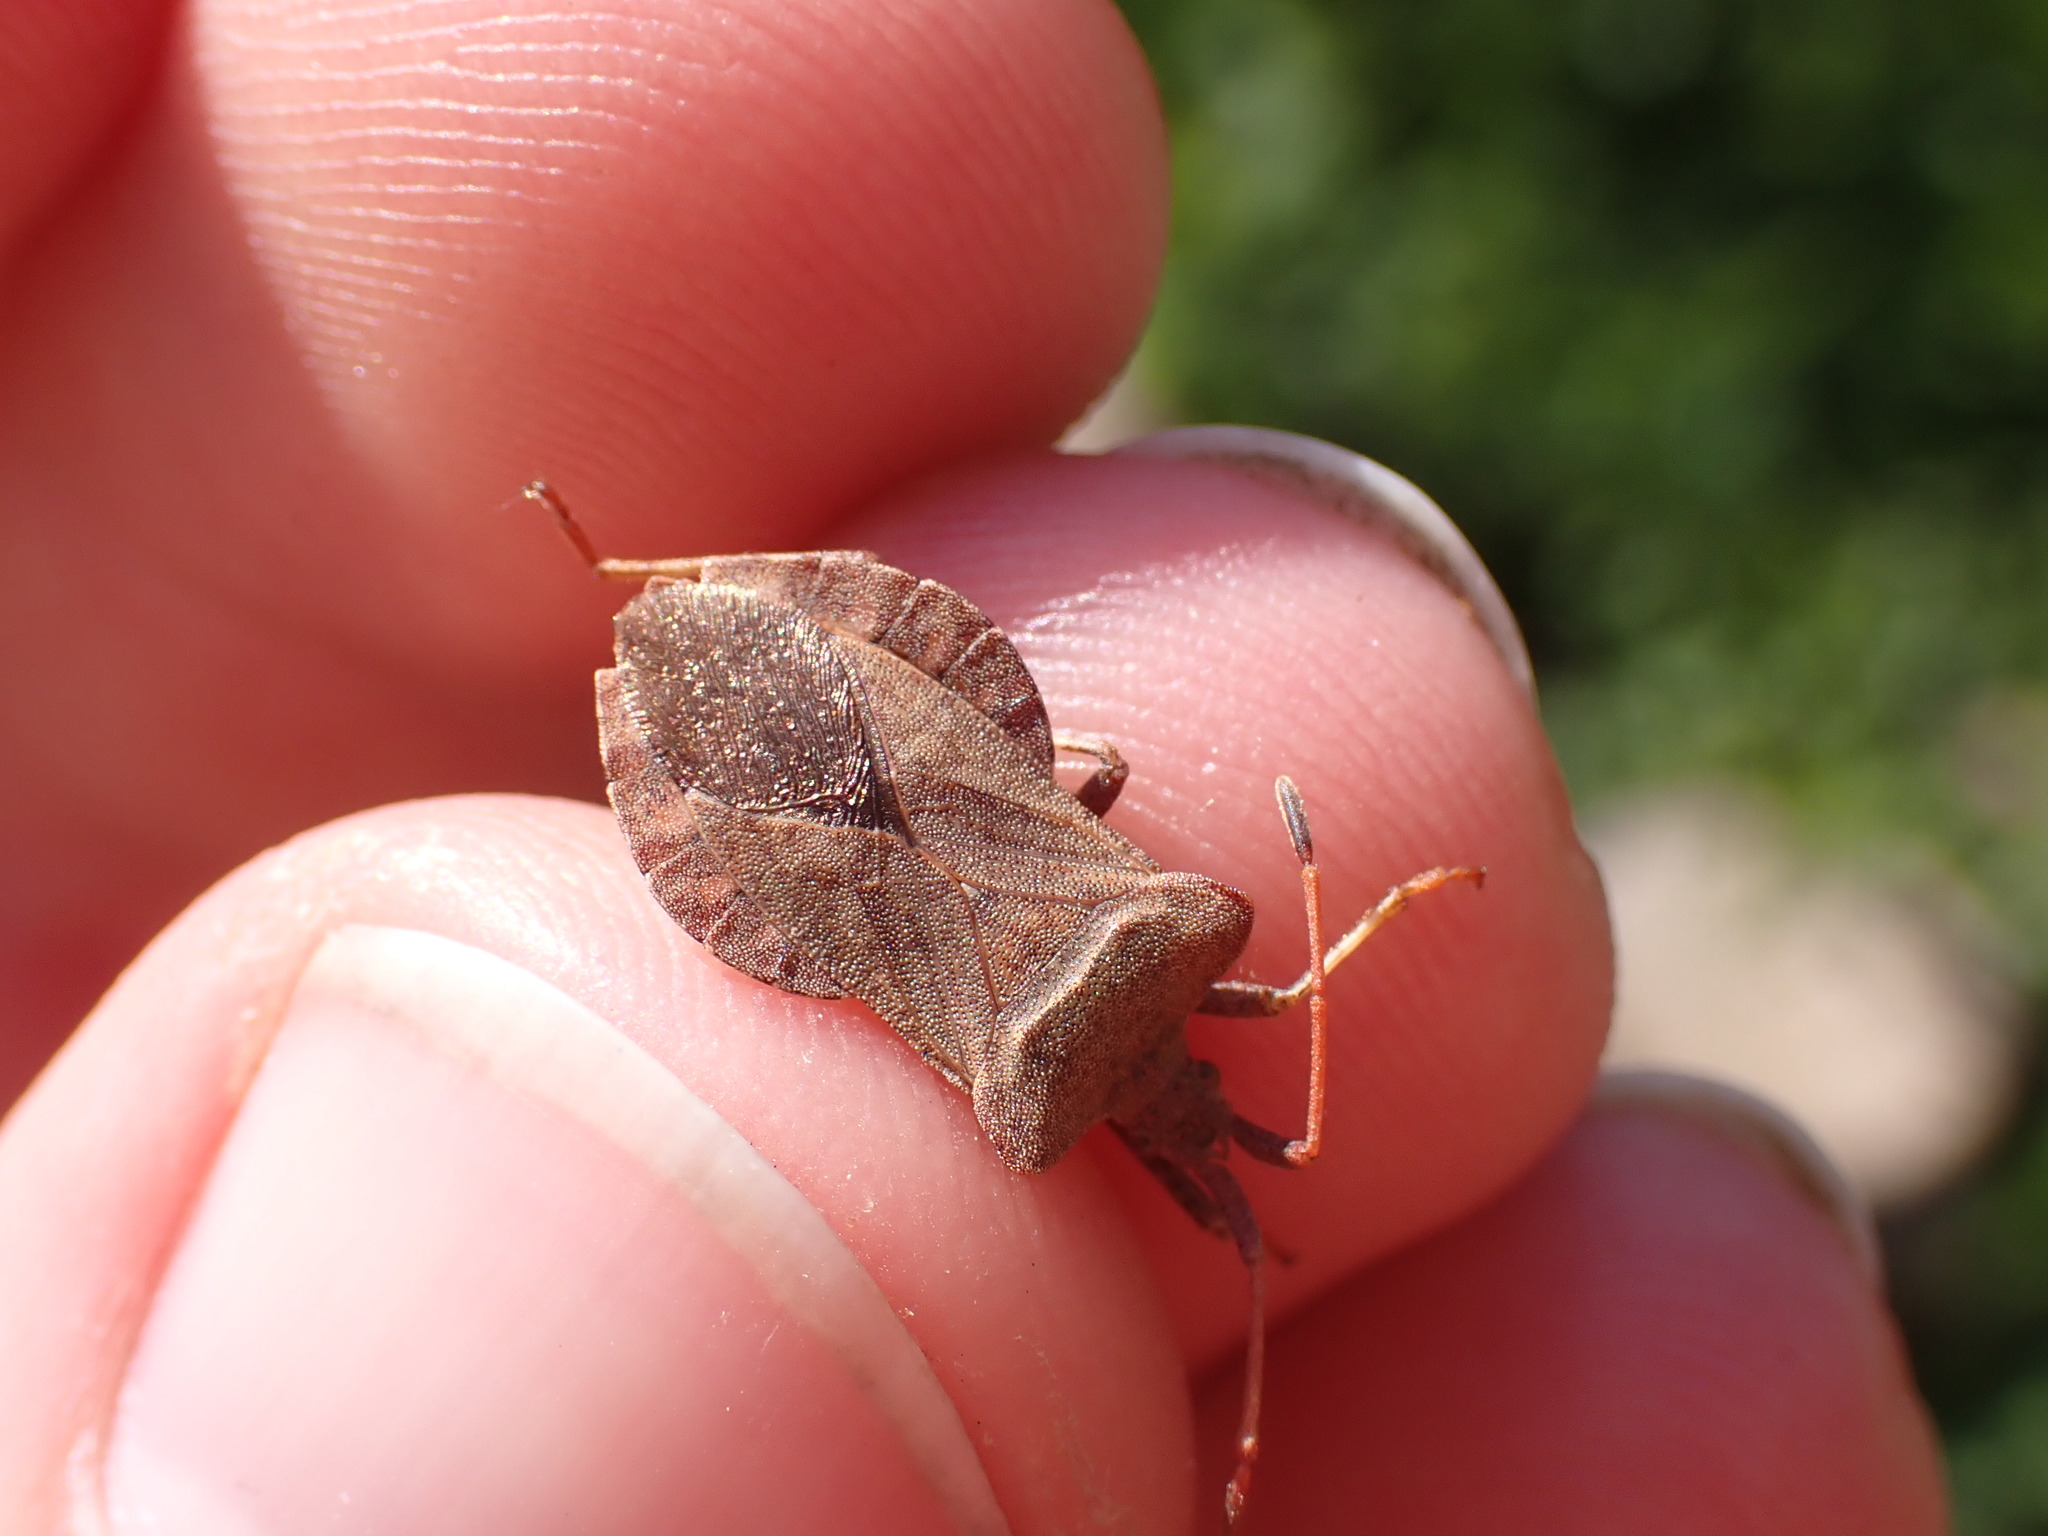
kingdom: Animalia
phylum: Arthropoda
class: Insecta
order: Hemiptera
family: Coreidae
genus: Coreus
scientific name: Coreus marginatus
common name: Dock bug
